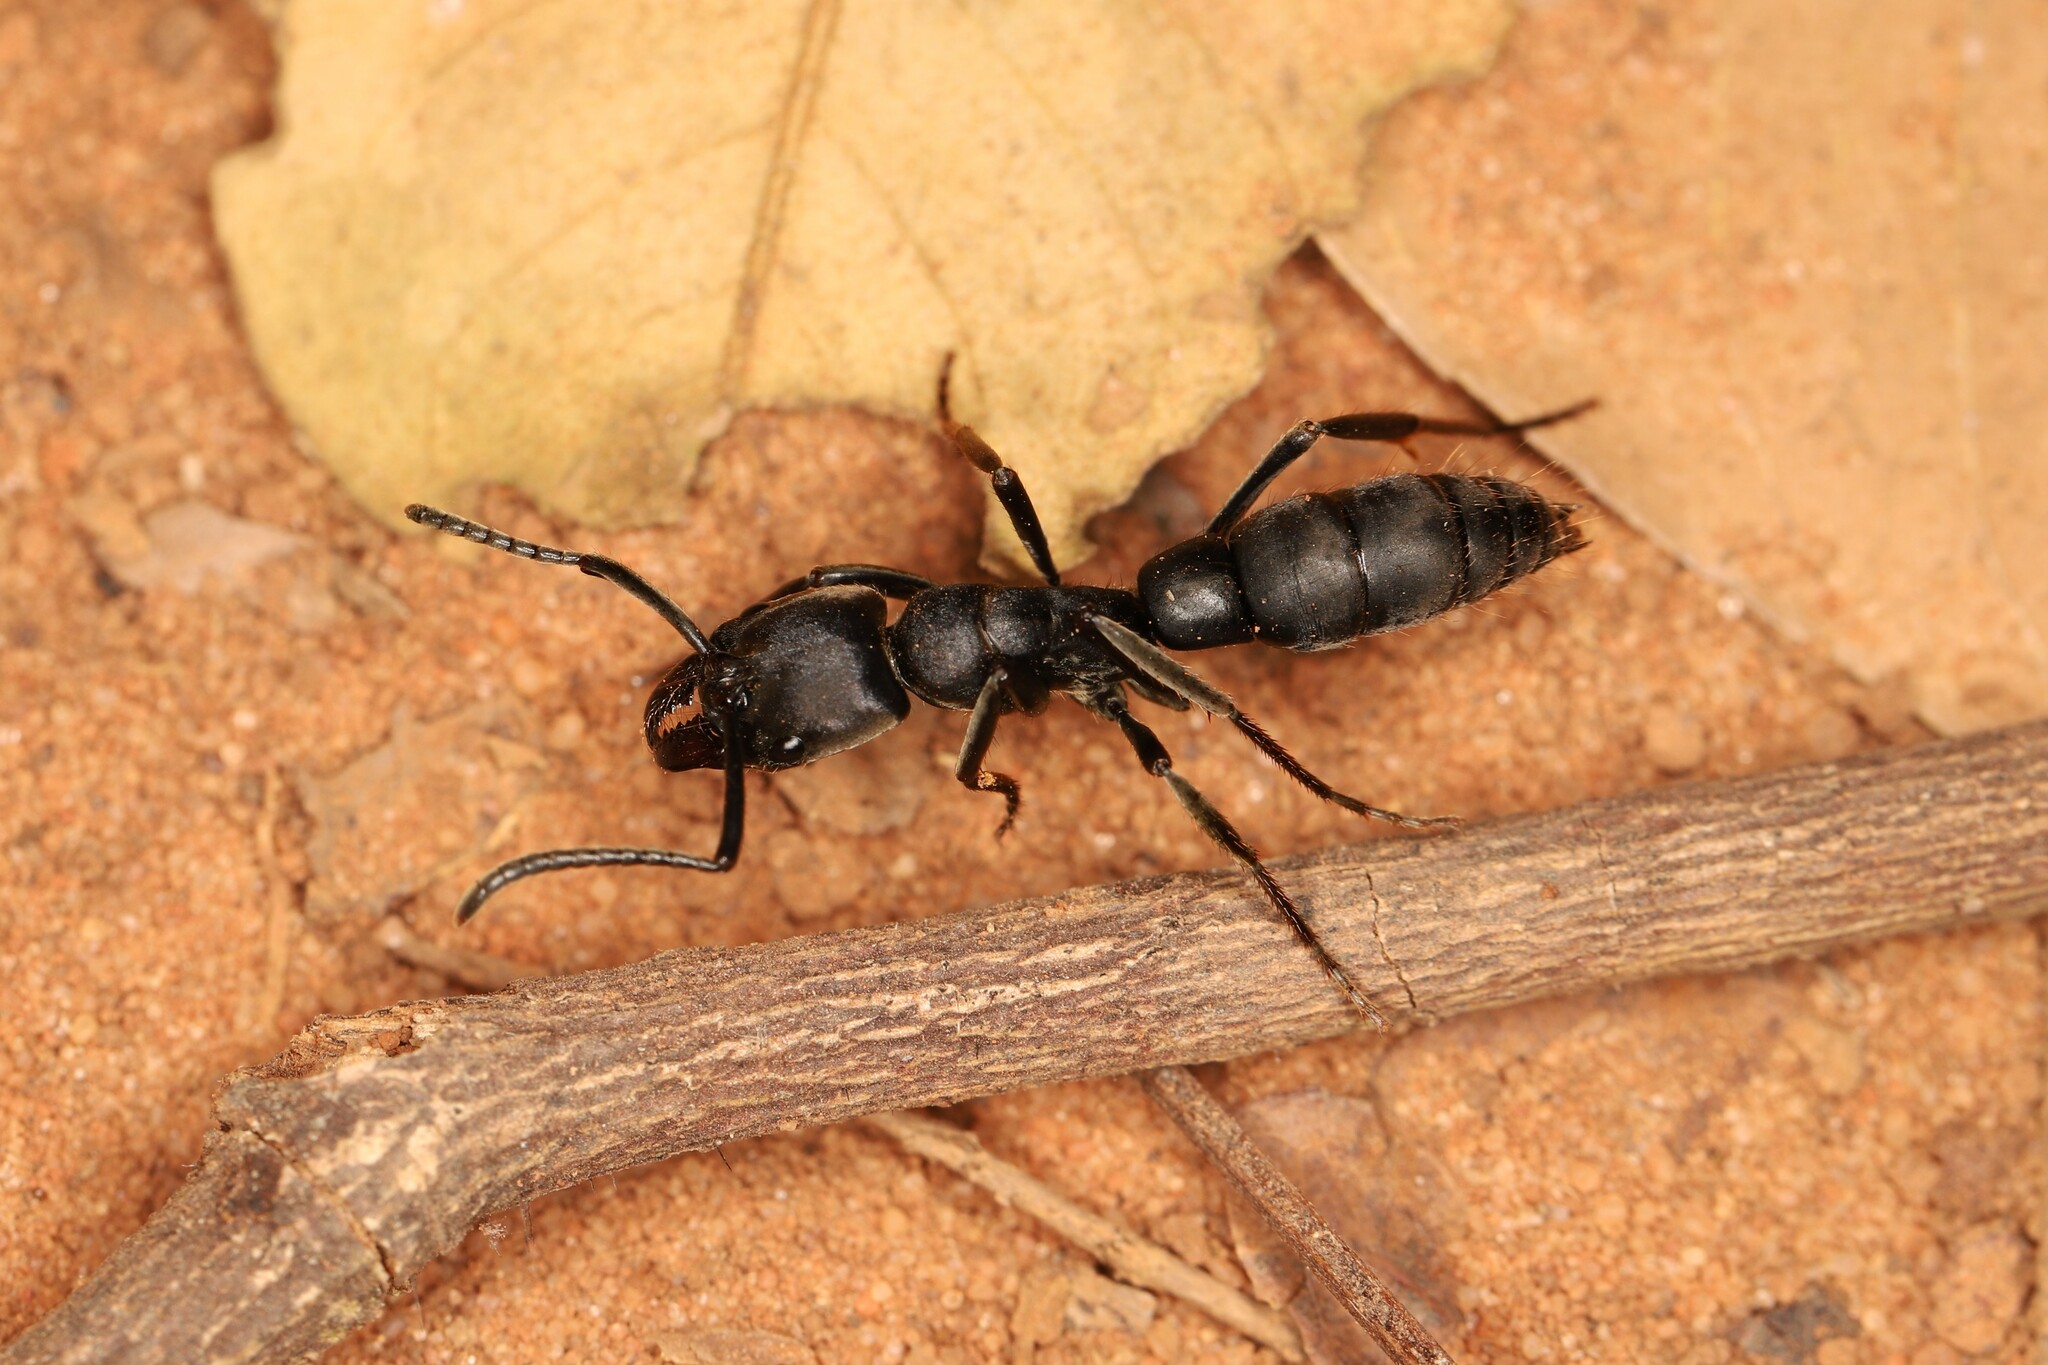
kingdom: Animalia
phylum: Arthropoda
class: Insecta
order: Hymenoptera
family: Formicidae
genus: Pachycondyla
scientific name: Pachycondyla crassinoda
